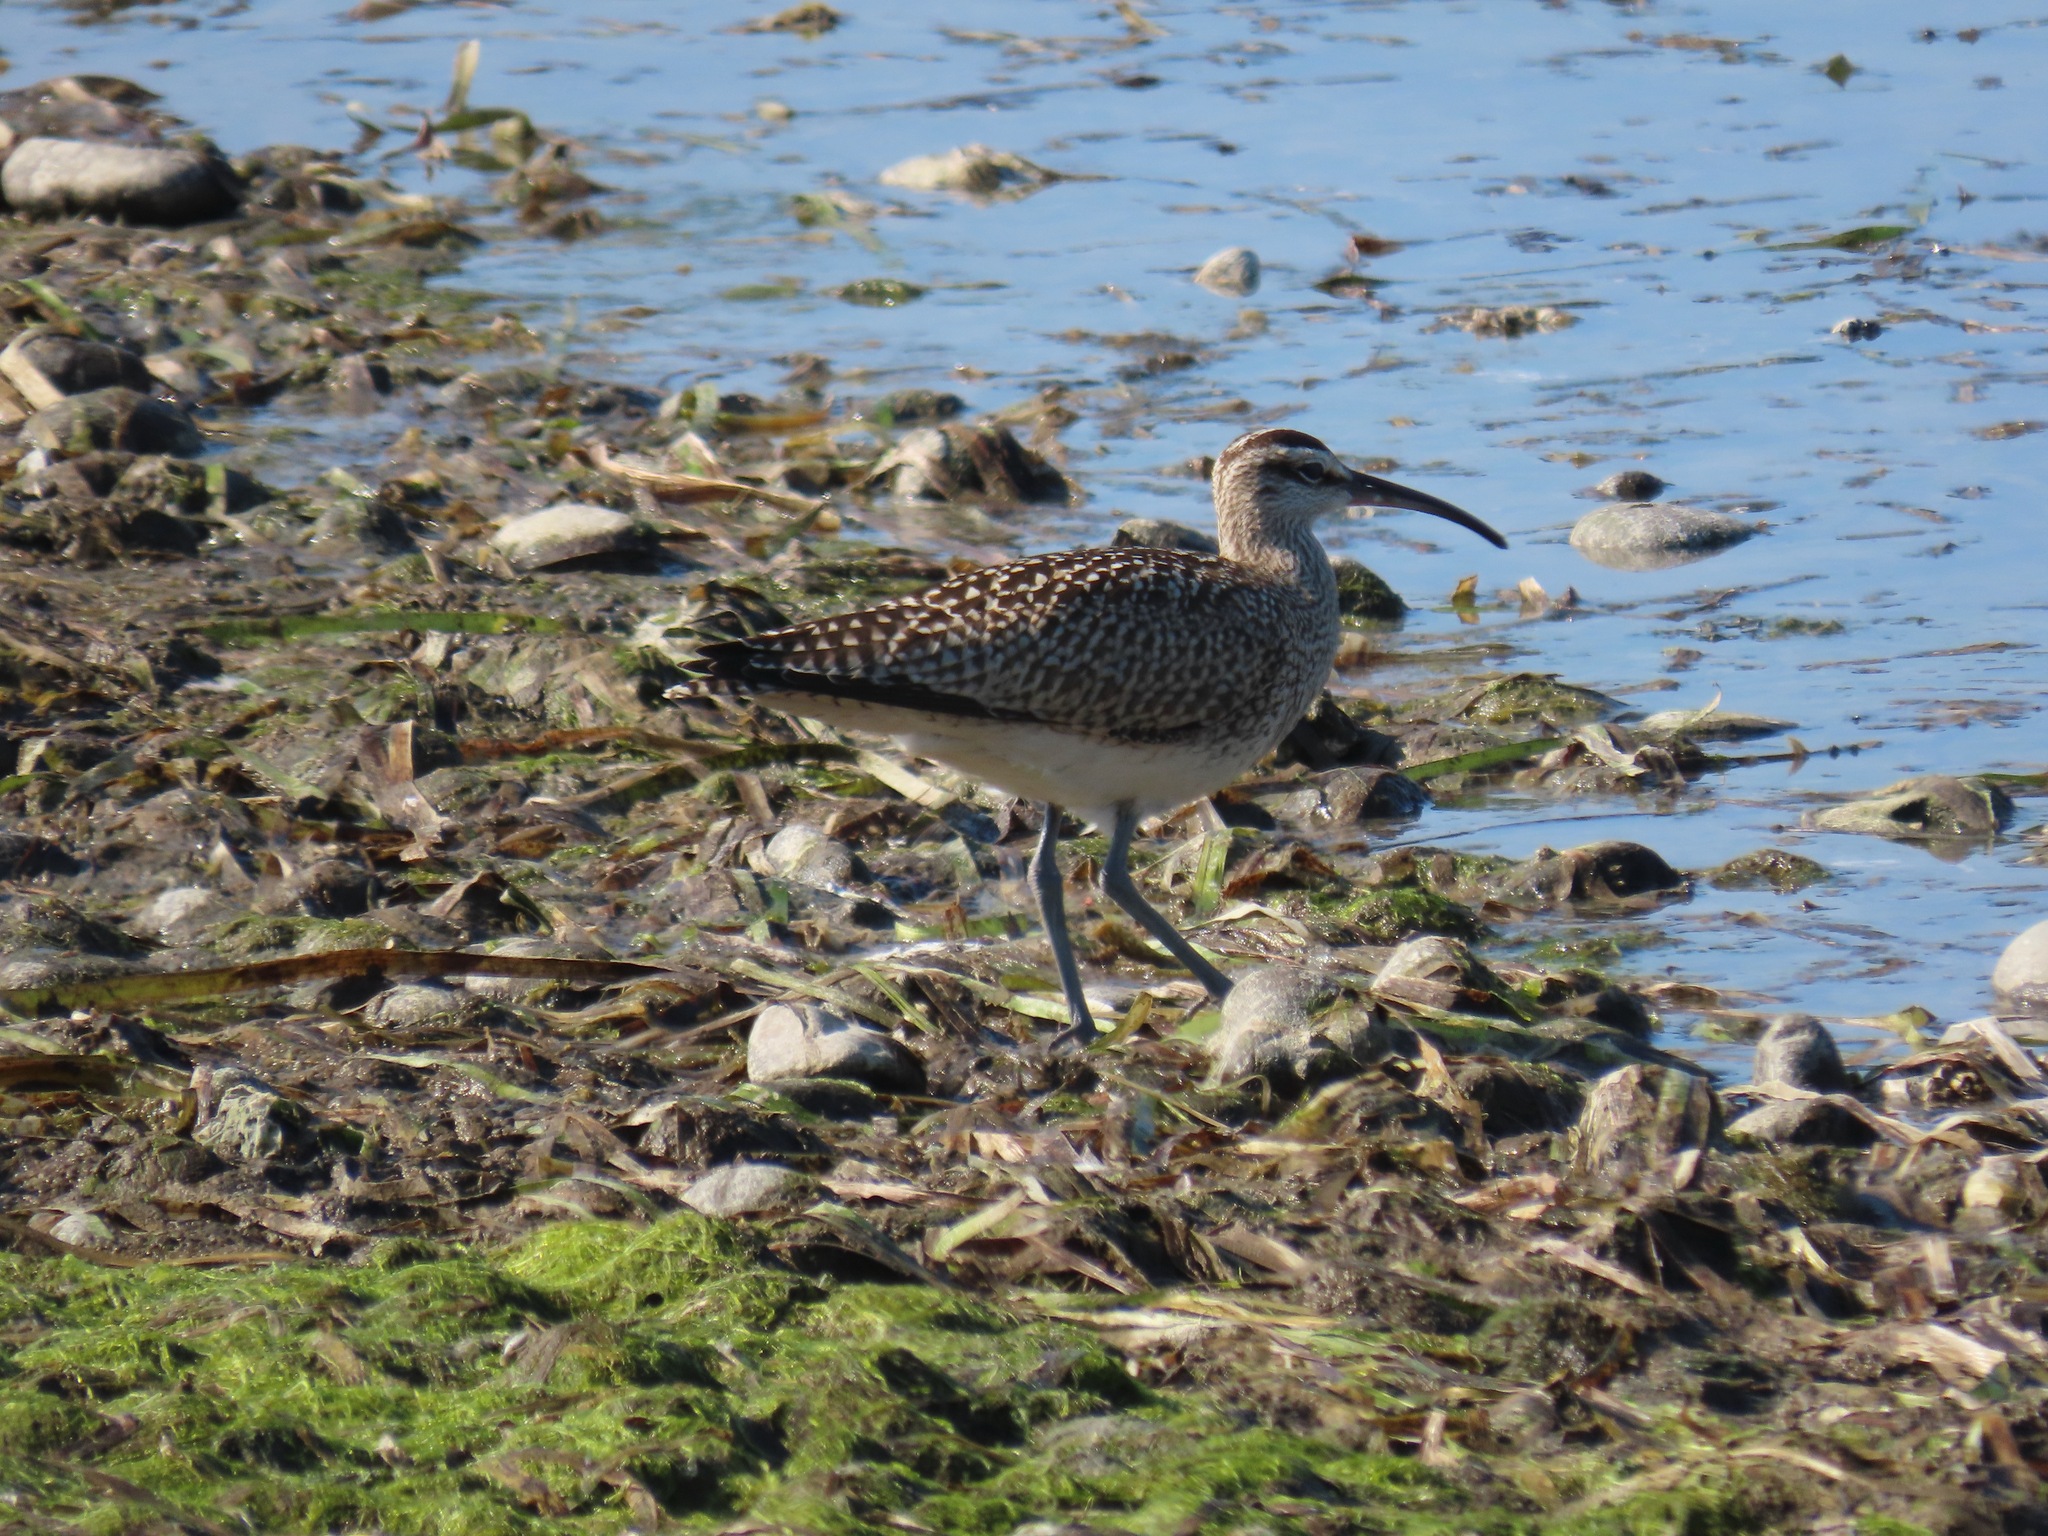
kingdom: Animalia
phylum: Chordata
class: Aves
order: Charadriiformes
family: Scolopacidae
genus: Numenius
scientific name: Numenius phaeopus
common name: Whimbrel
